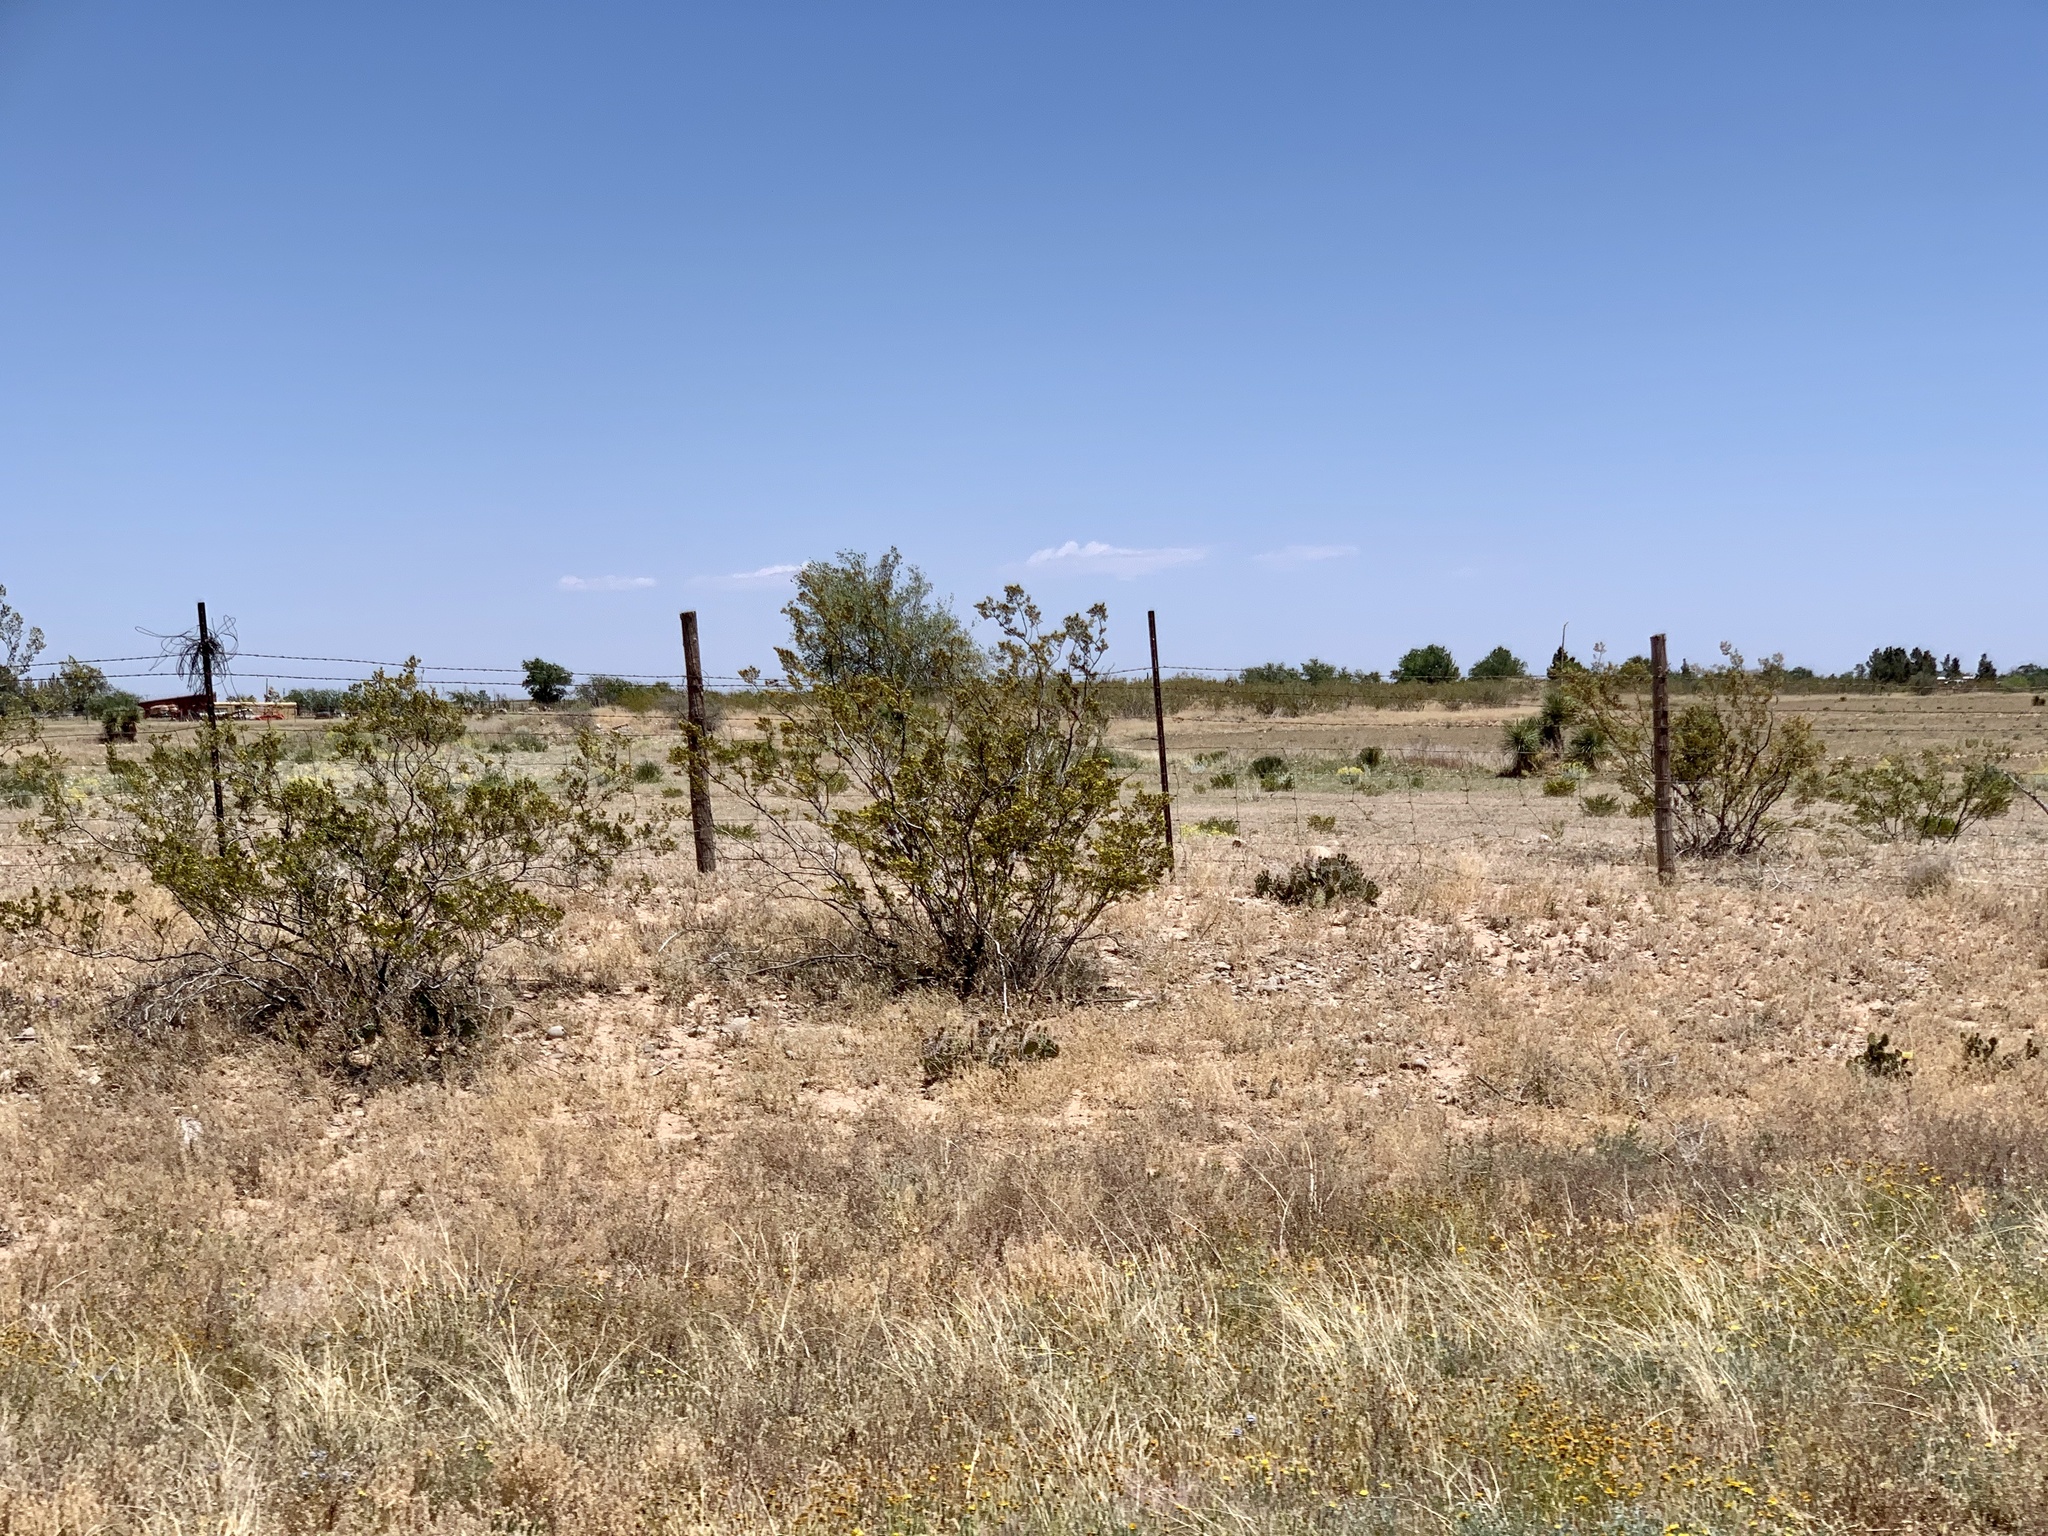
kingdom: Plantae
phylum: Tracheophyta
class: Magnoliopsida
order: Zygophyllales
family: Zygophyllaceae
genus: Larrea
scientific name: Larrea tridentata
